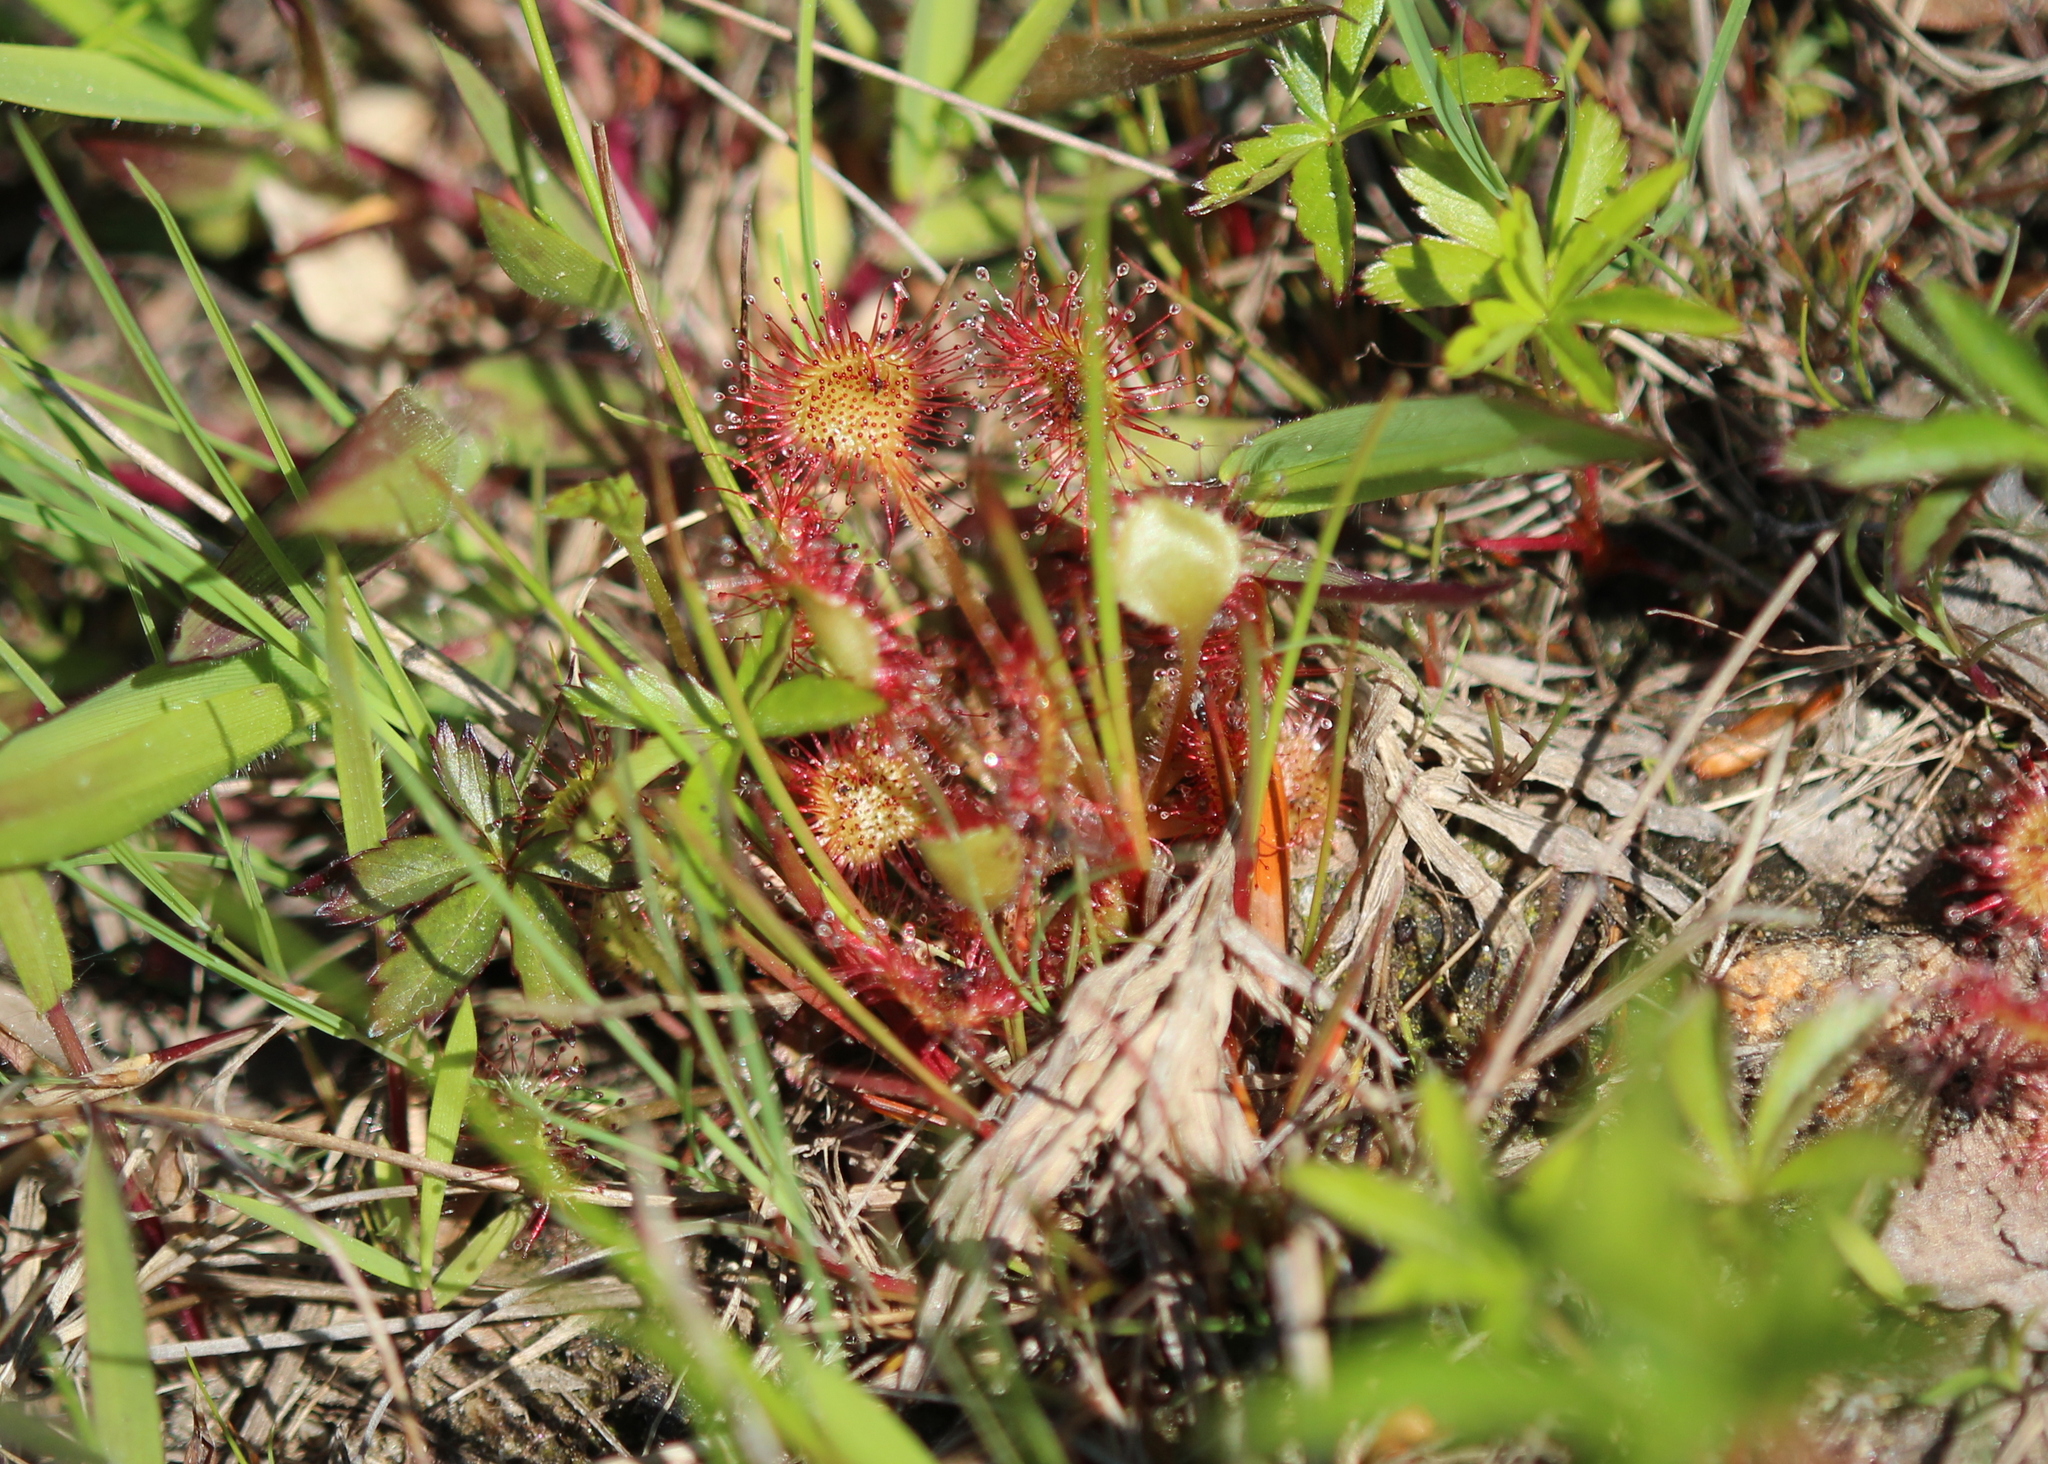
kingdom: Plantae
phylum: Tracheophyta
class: Magnoliopsida
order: Caryophyllales
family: Droseraceae
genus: Drosera
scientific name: Drosera rotundifolia
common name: Round-leaved sundew
